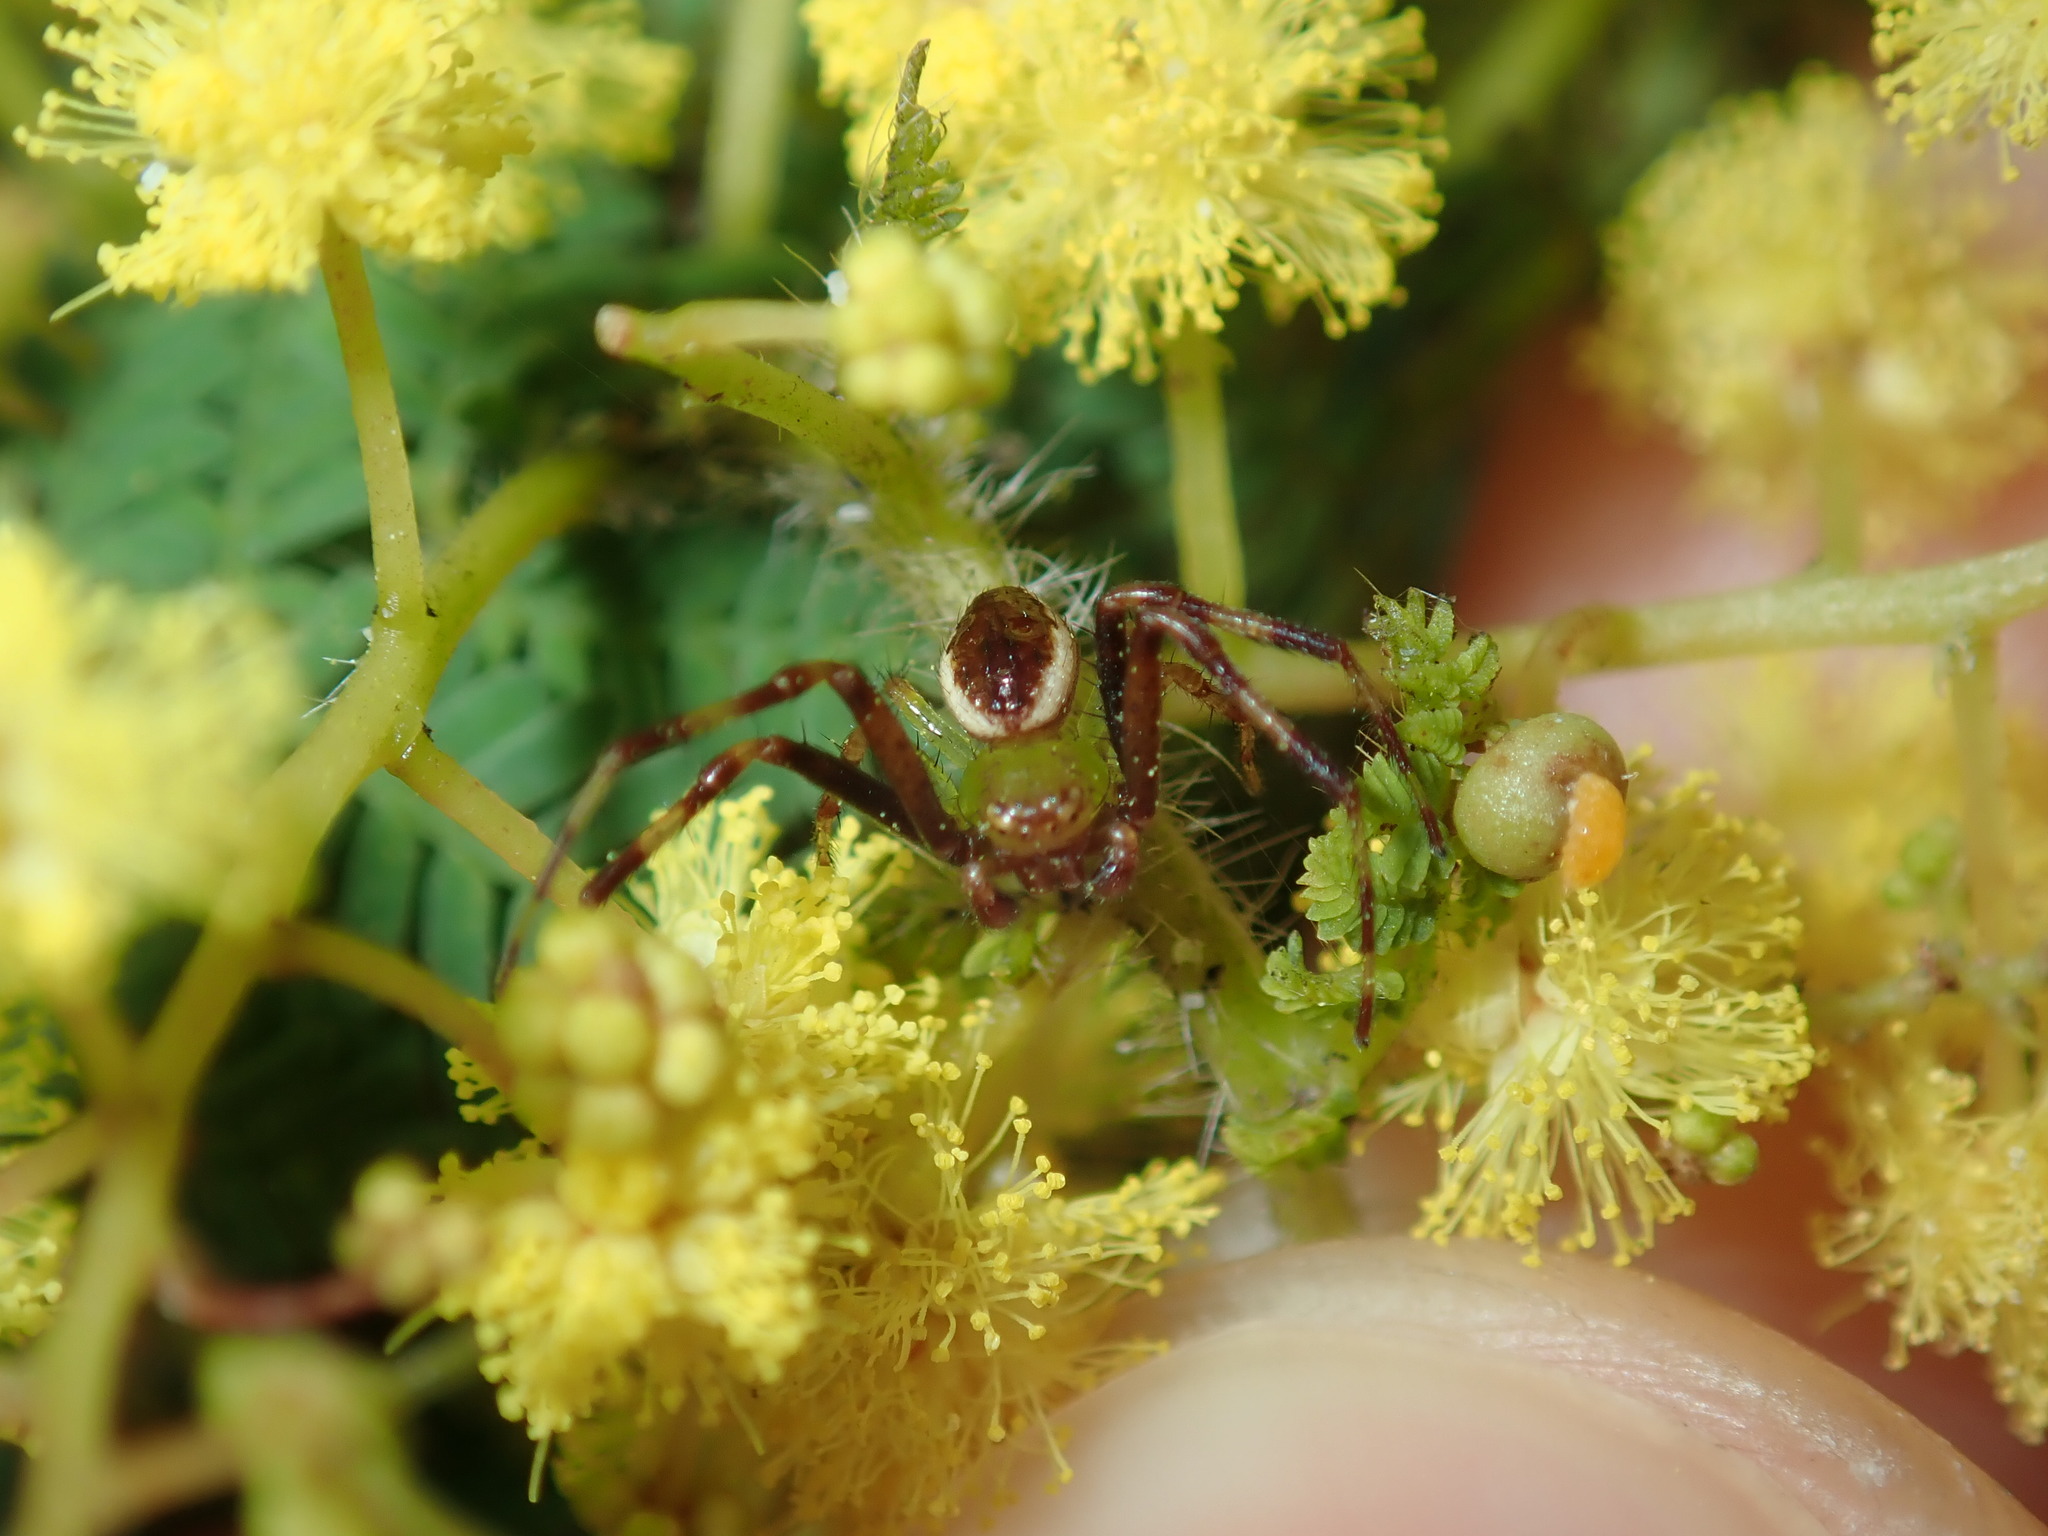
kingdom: Animalia
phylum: Arthropoda
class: Arachnida
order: Araneae
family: Thomisidae
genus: Australomisidia
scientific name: Australomisidia pilula
